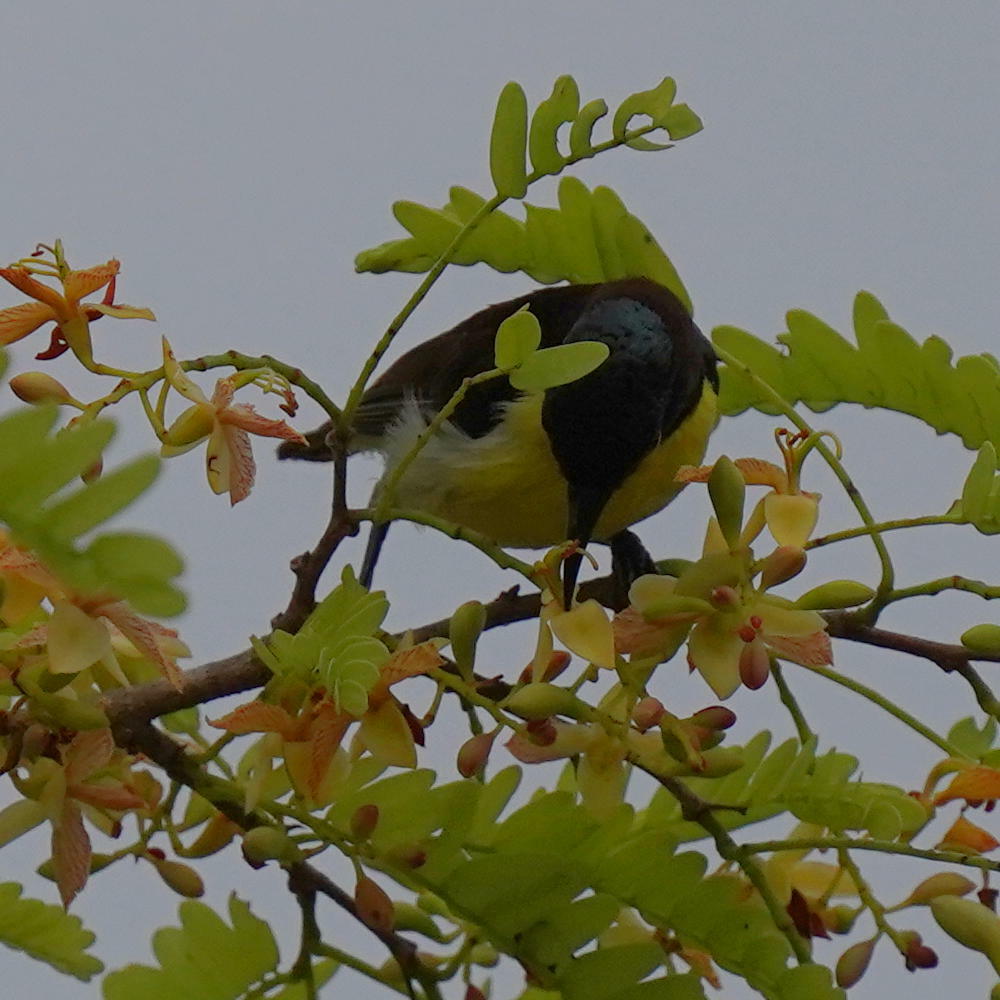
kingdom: Animalia
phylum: Chordata
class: Aves
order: Passeriformes
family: Nectariniidae
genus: Leptocoma
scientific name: Leptocoma zeylonica
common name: Purple-rumped sunbird
